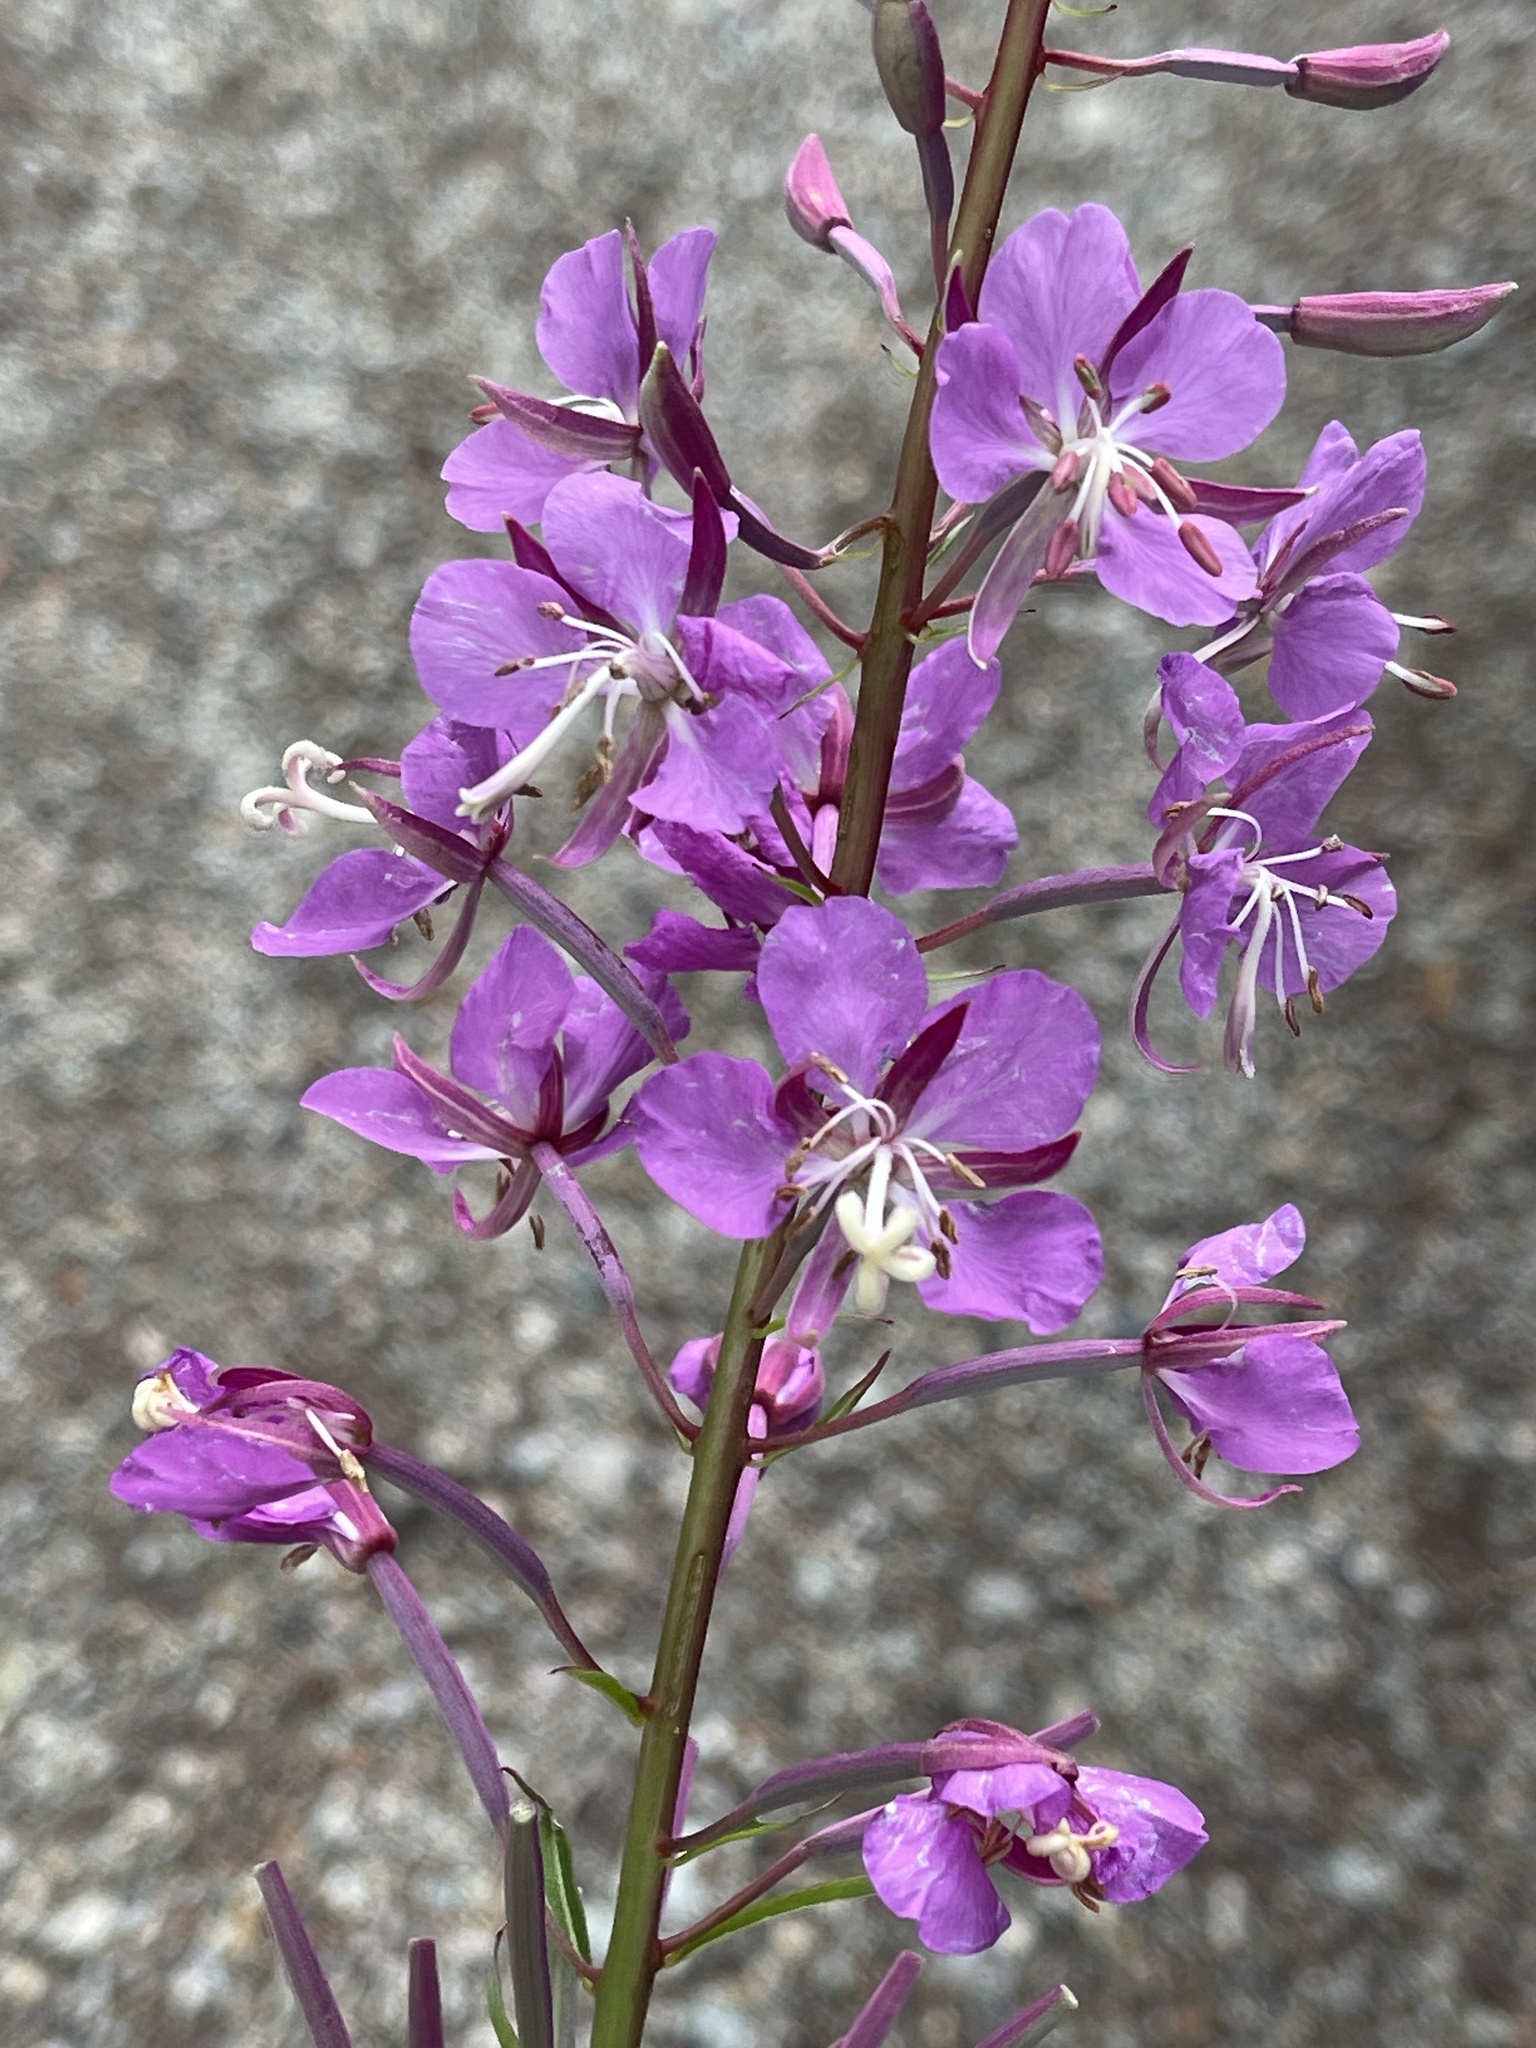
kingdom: Plantae
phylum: Tracheophyta
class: Magnoliopsida
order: Myrtales
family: Onagraceae
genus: Chamaenerion
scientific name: Chamaenerion angustifolium
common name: Fireweed
